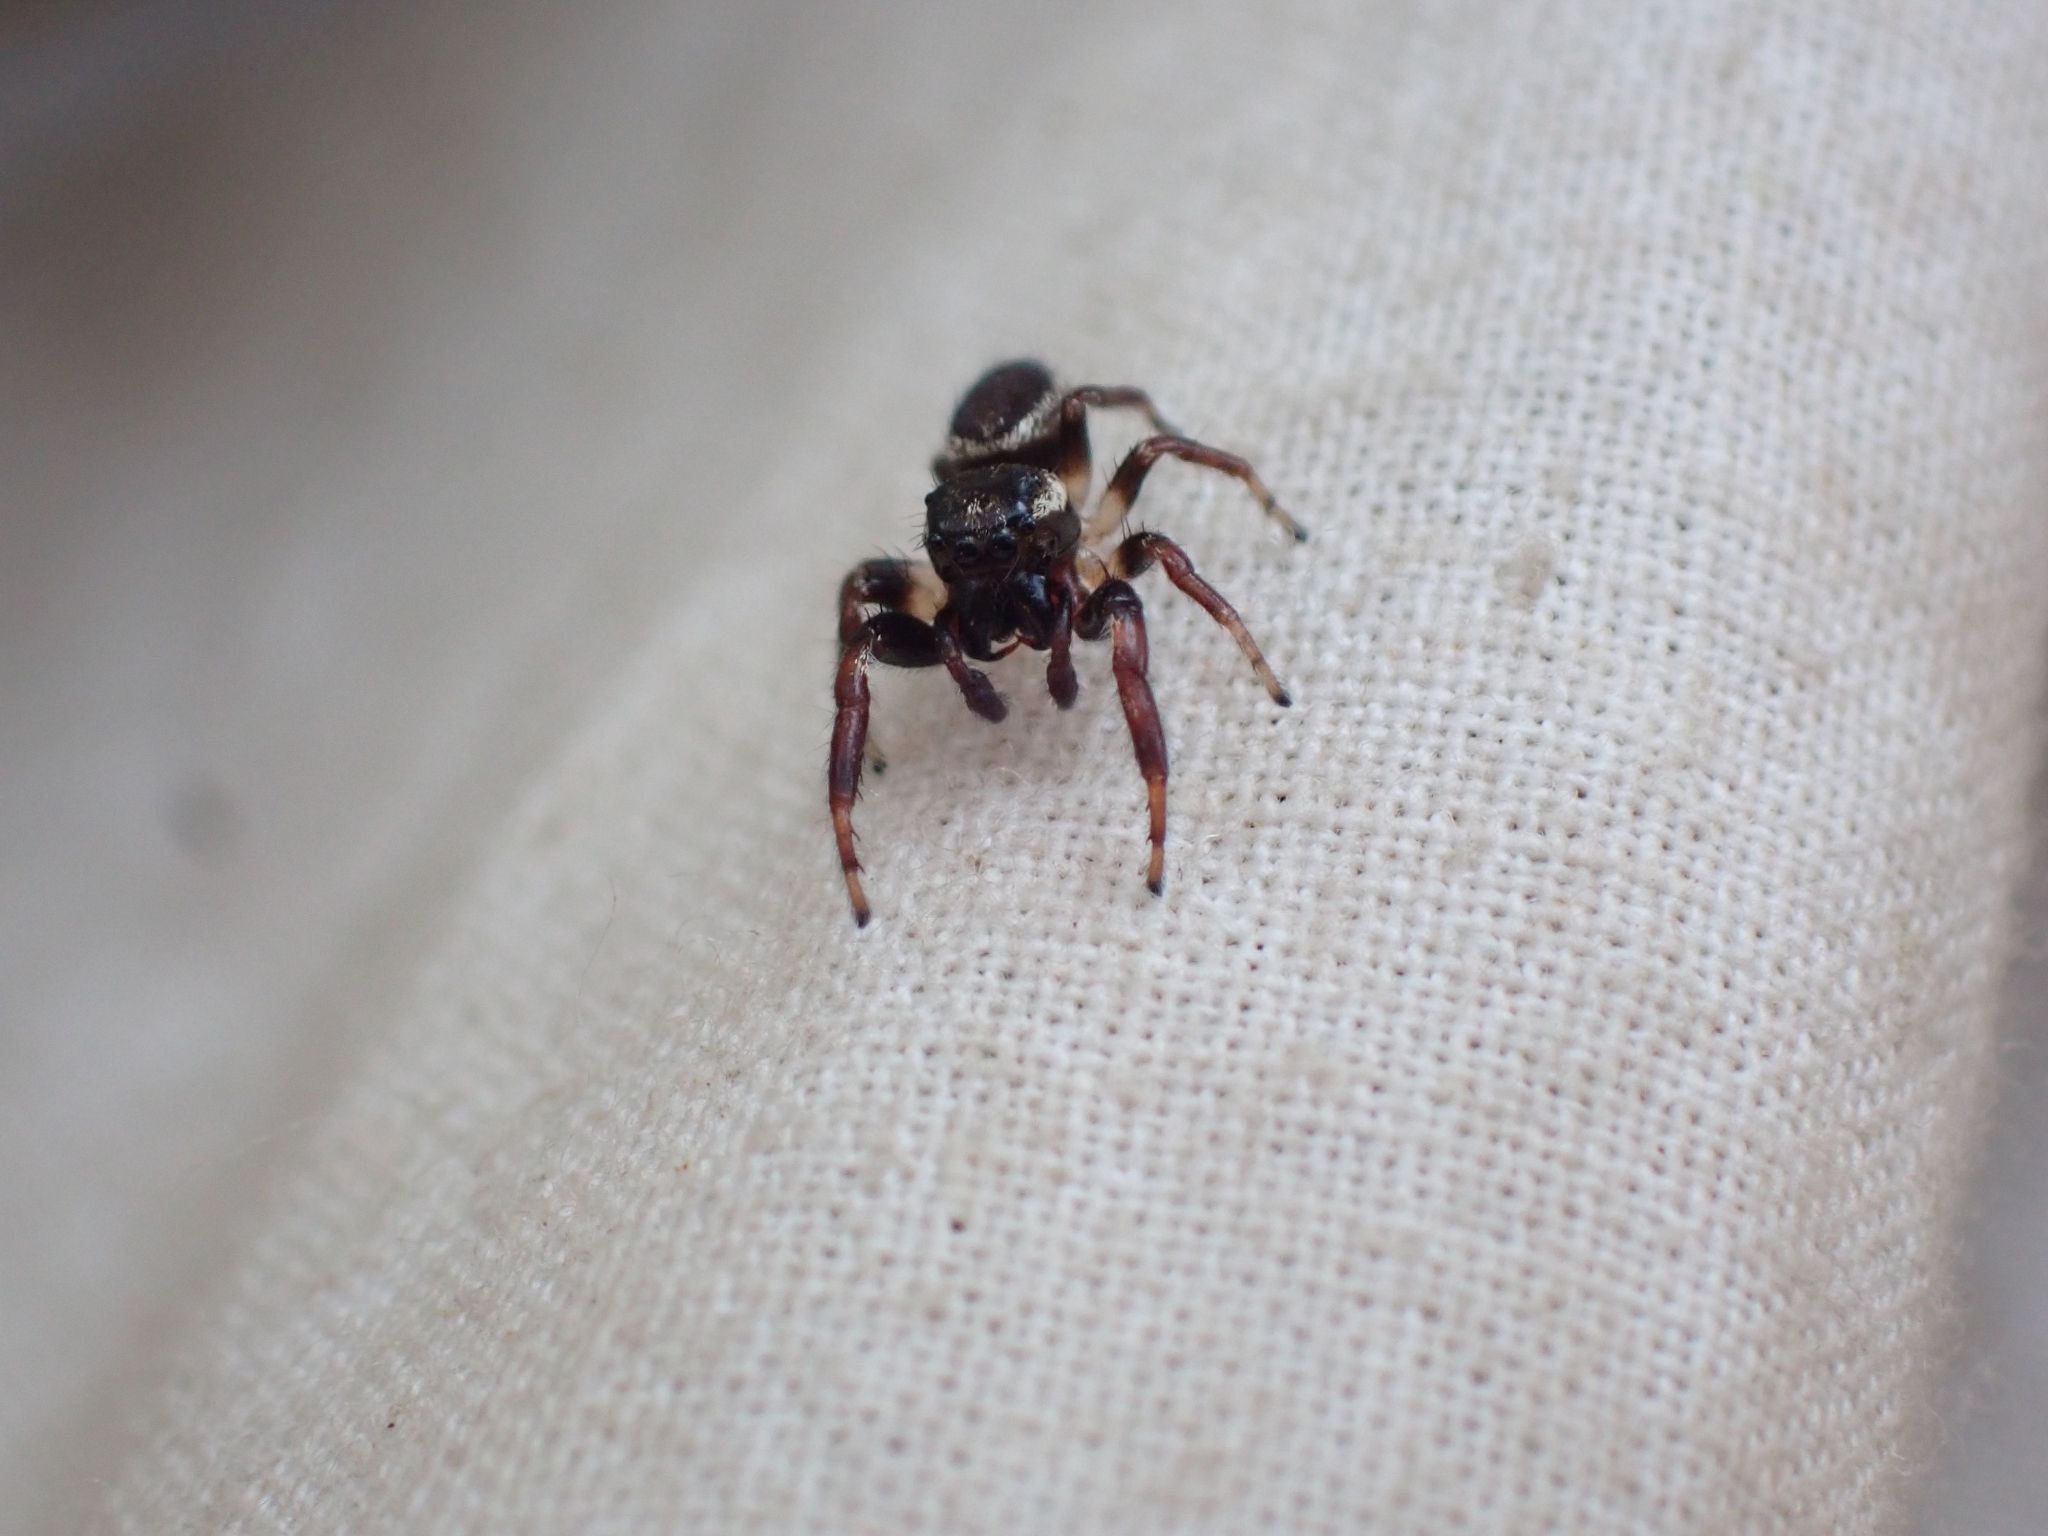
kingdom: Animalia
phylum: Arthropoda
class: Arachnida
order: Araneae
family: Salticidae
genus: Eris
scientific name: Eris militaris
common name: Bronze jumper
